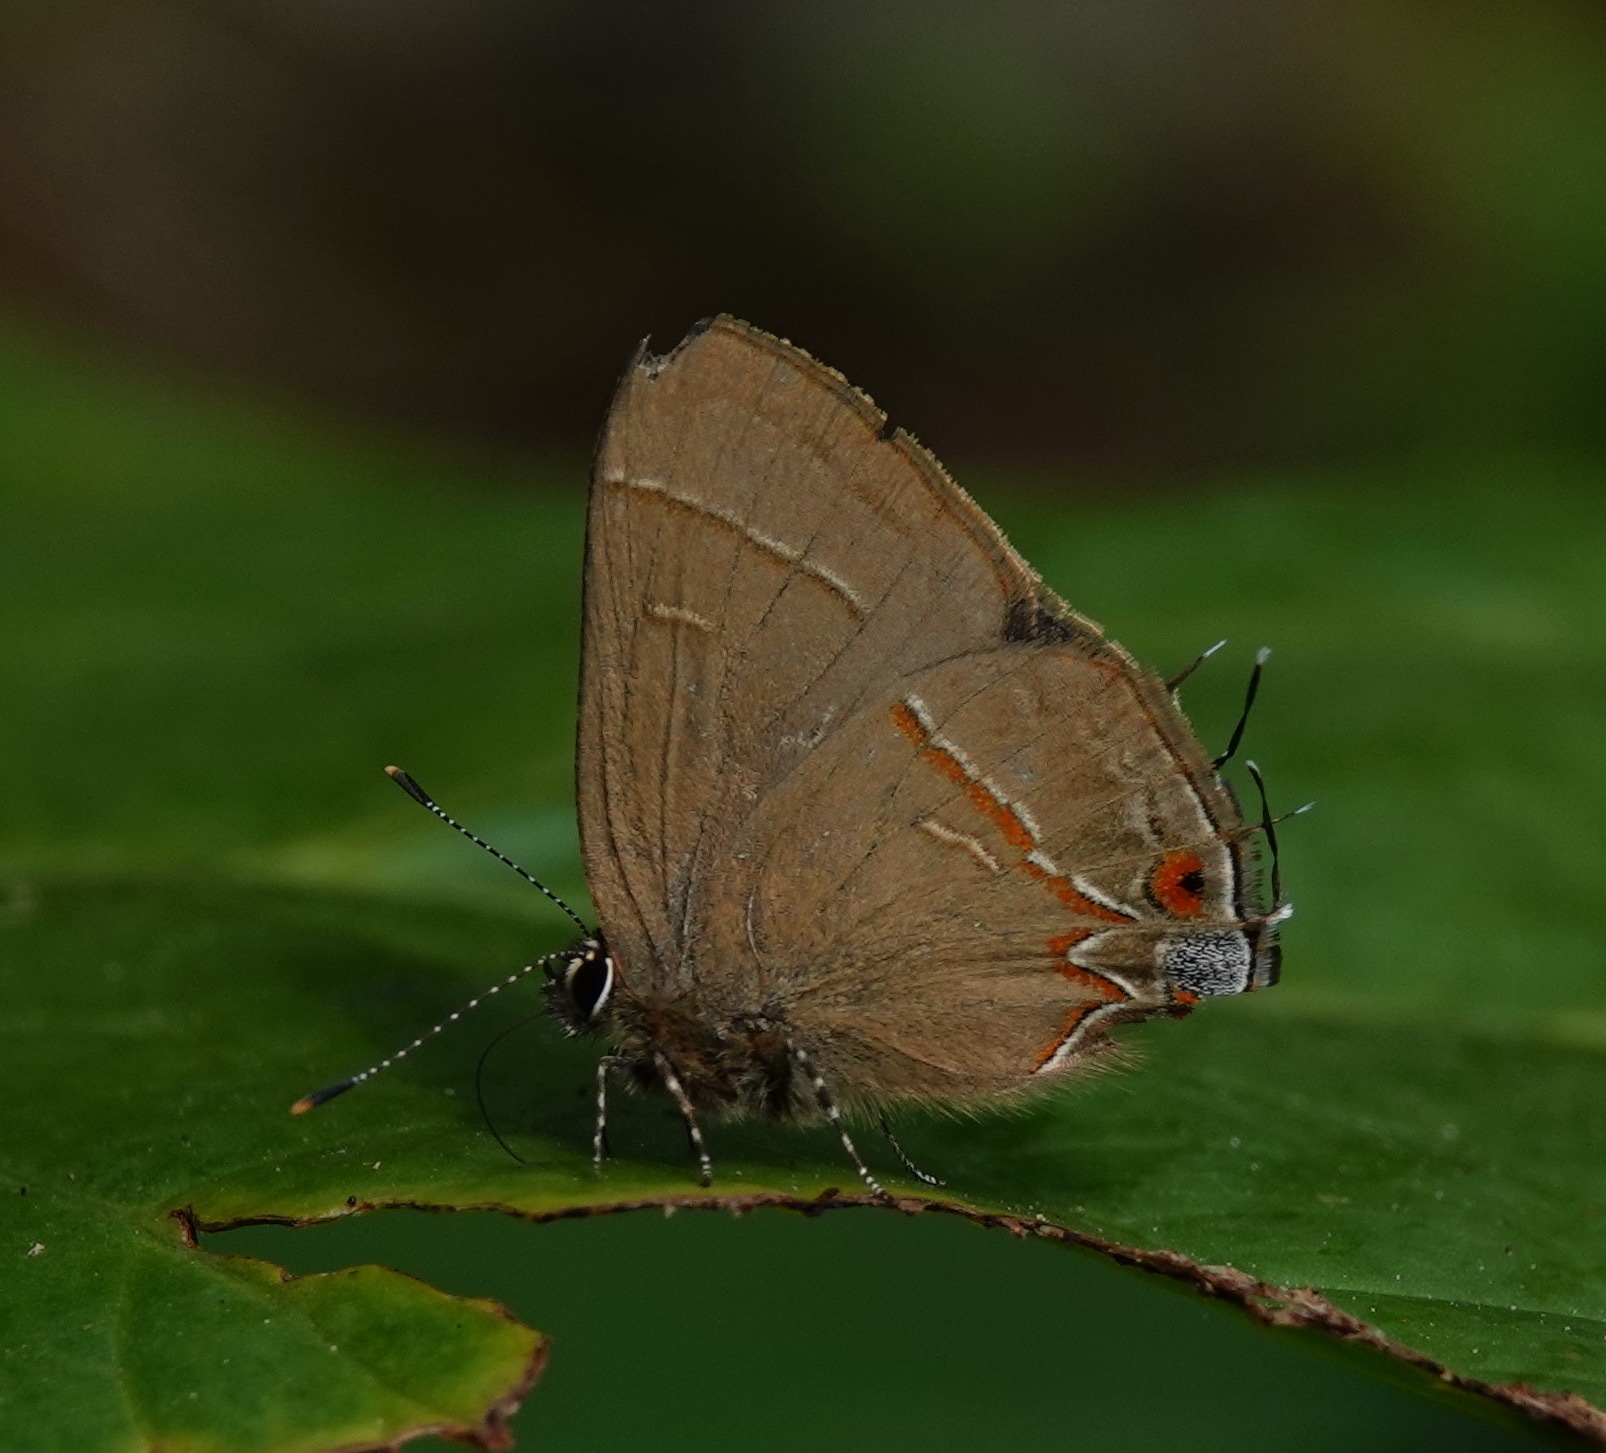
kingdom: Animalia
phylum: Arthropoda
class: Insecta
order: Lepidoptera
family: Lycaenidae
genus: Arzecla
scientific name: Arzecla tucumanensis
